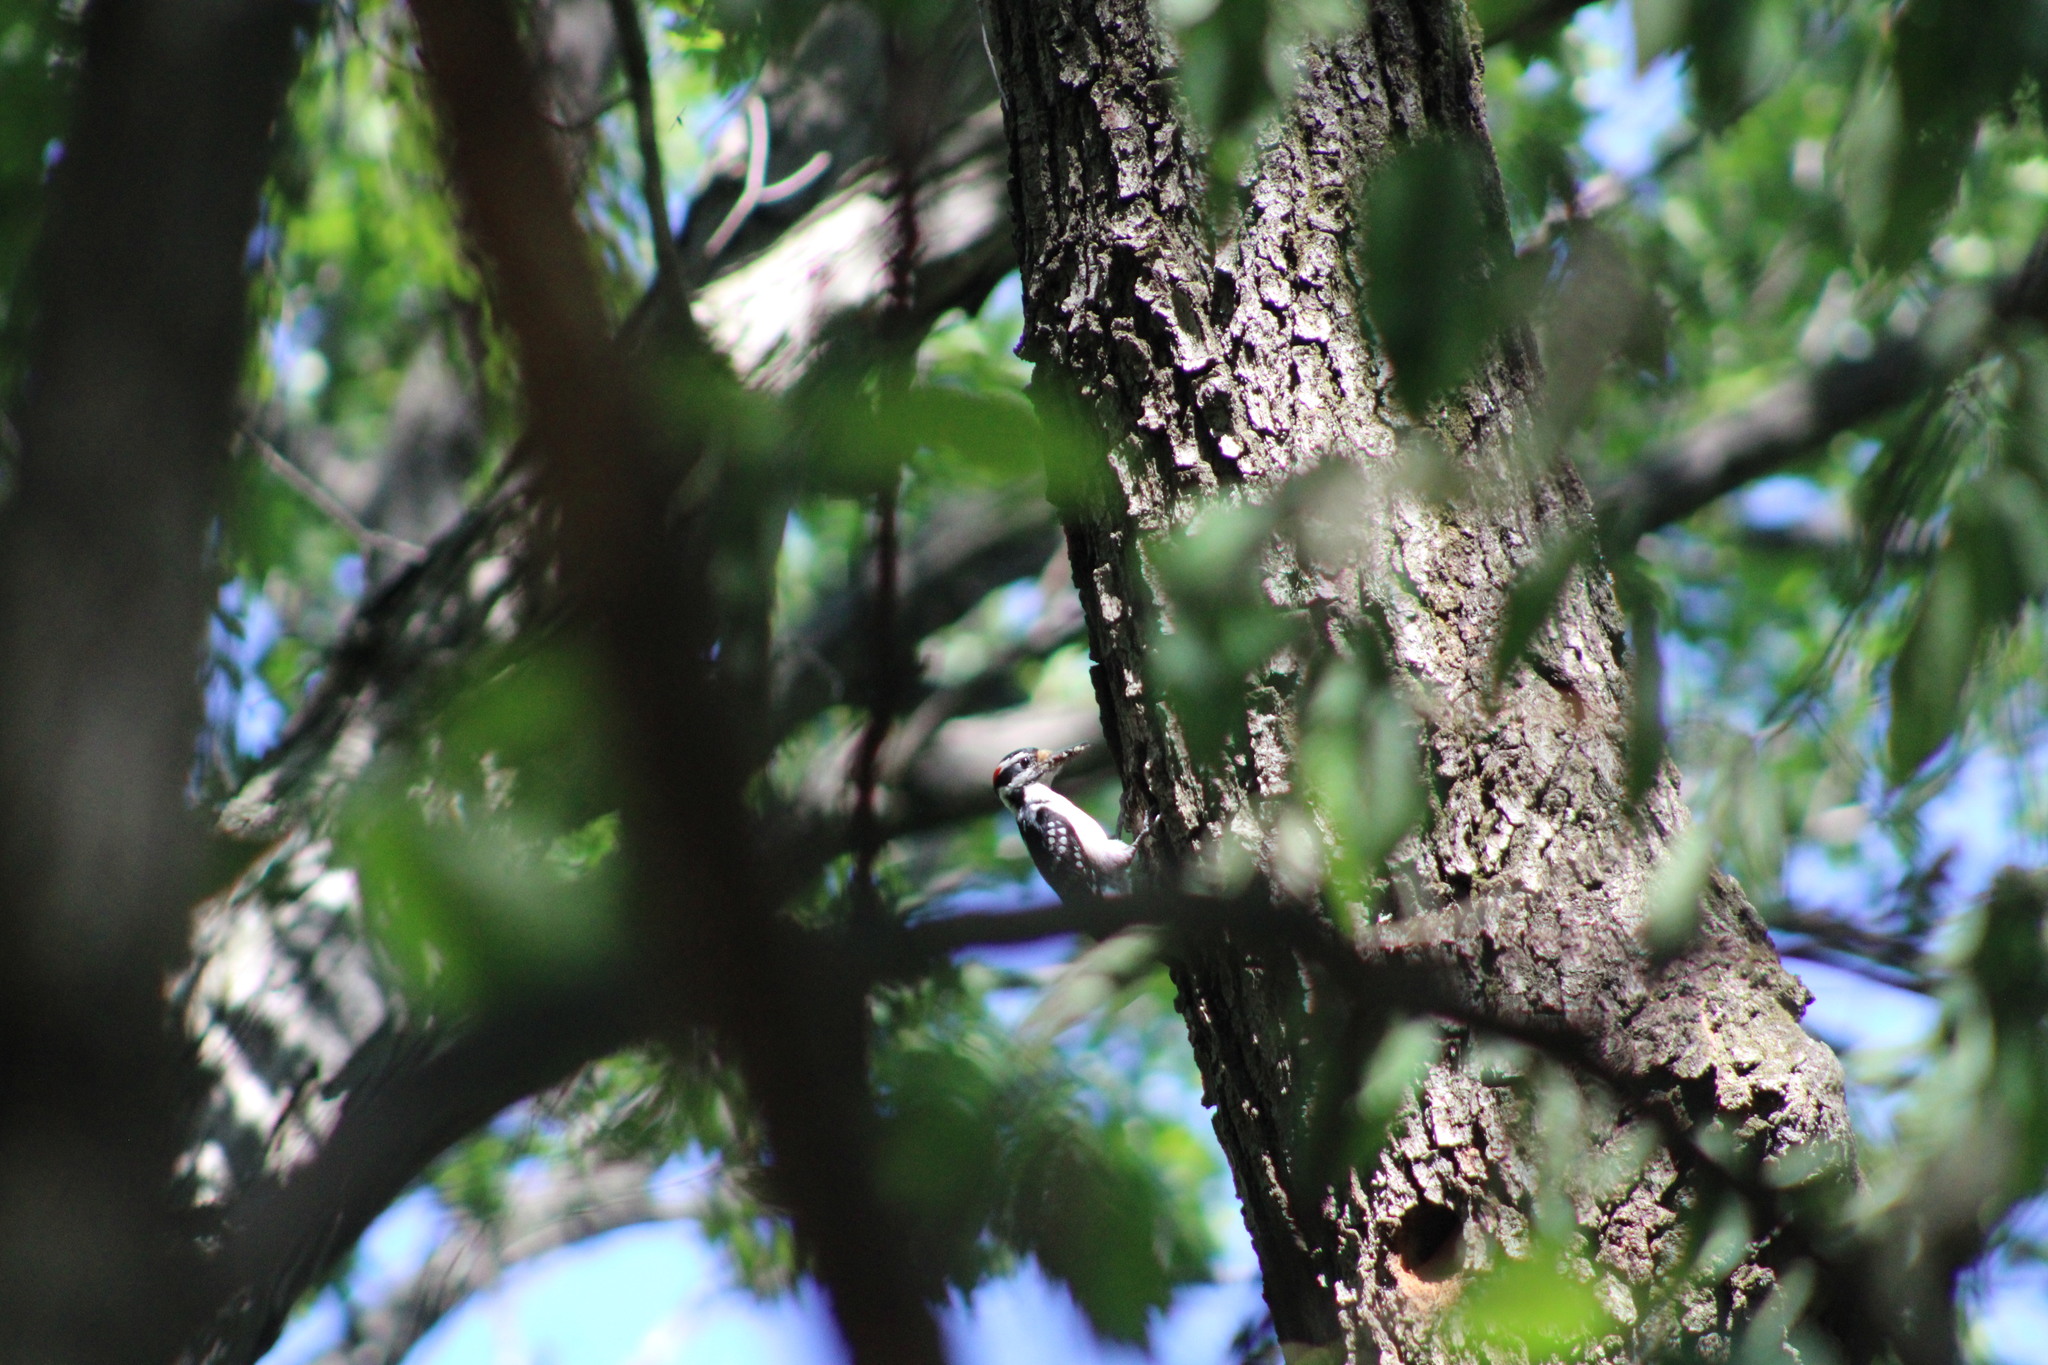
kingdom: Animalia
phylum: Chordata
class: Aves
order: Piciformes
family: Picidae
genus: Leuconotopicus
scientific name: Leuconotopicus villosus
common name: Hairy woodpecker
